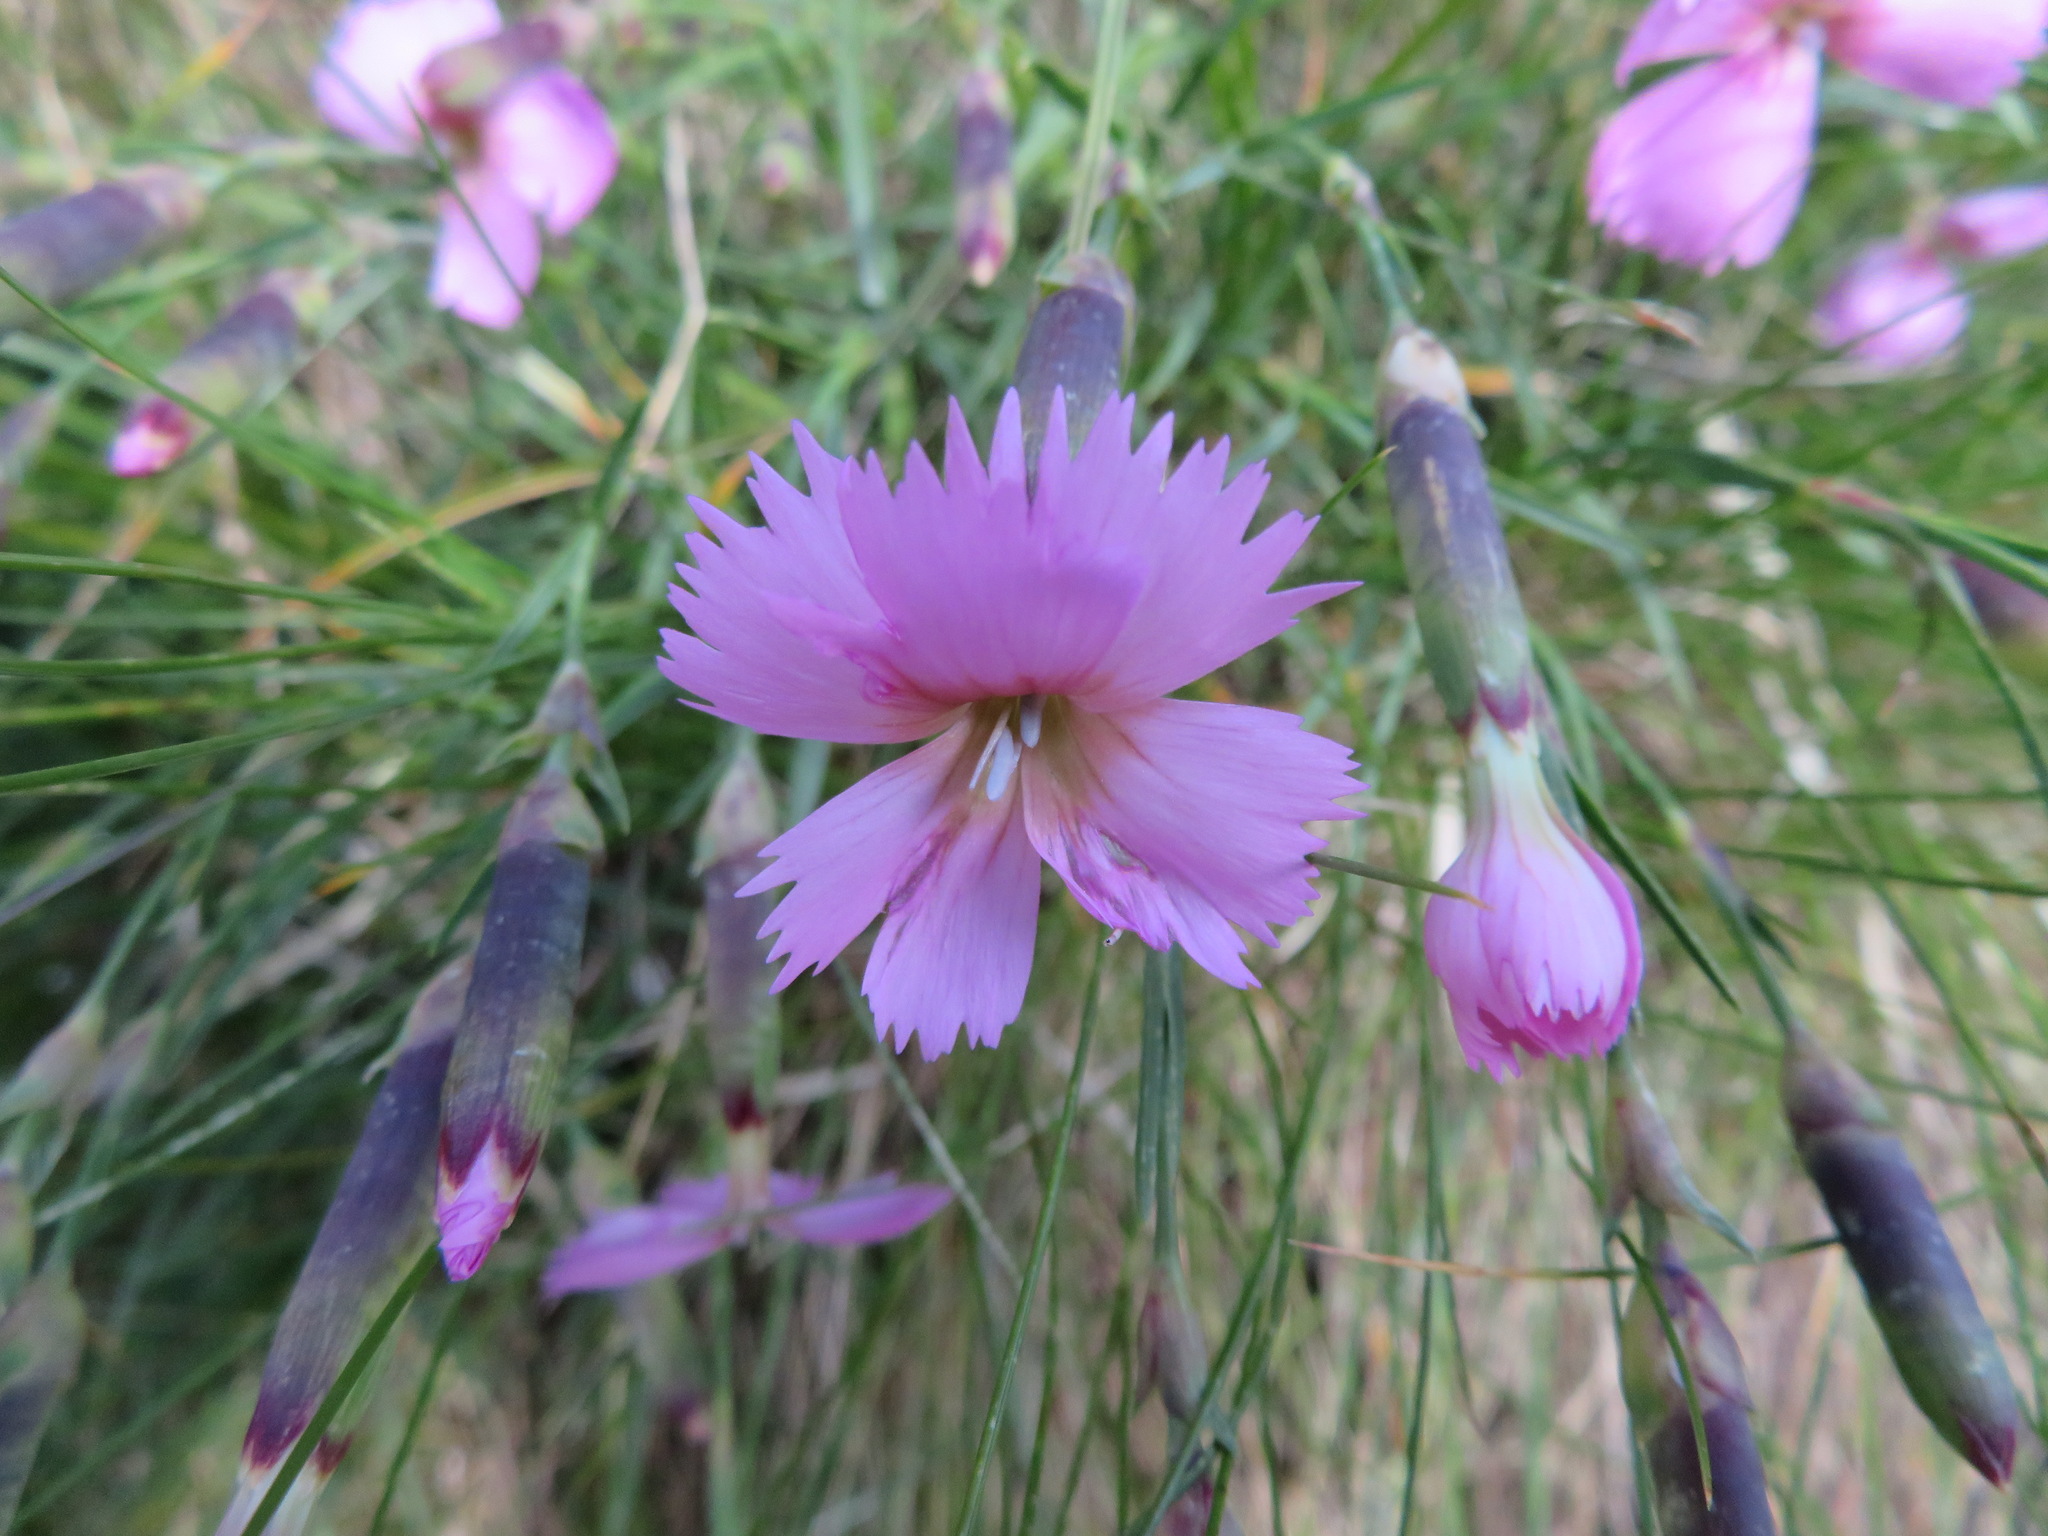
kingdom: Plantae
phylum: Tracheophyta
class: Magnoliopsida
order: Caryophyllales
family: Caryophyllaceae
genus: Dianthus
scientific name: Dianthus sylvestris
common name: Wood pink
